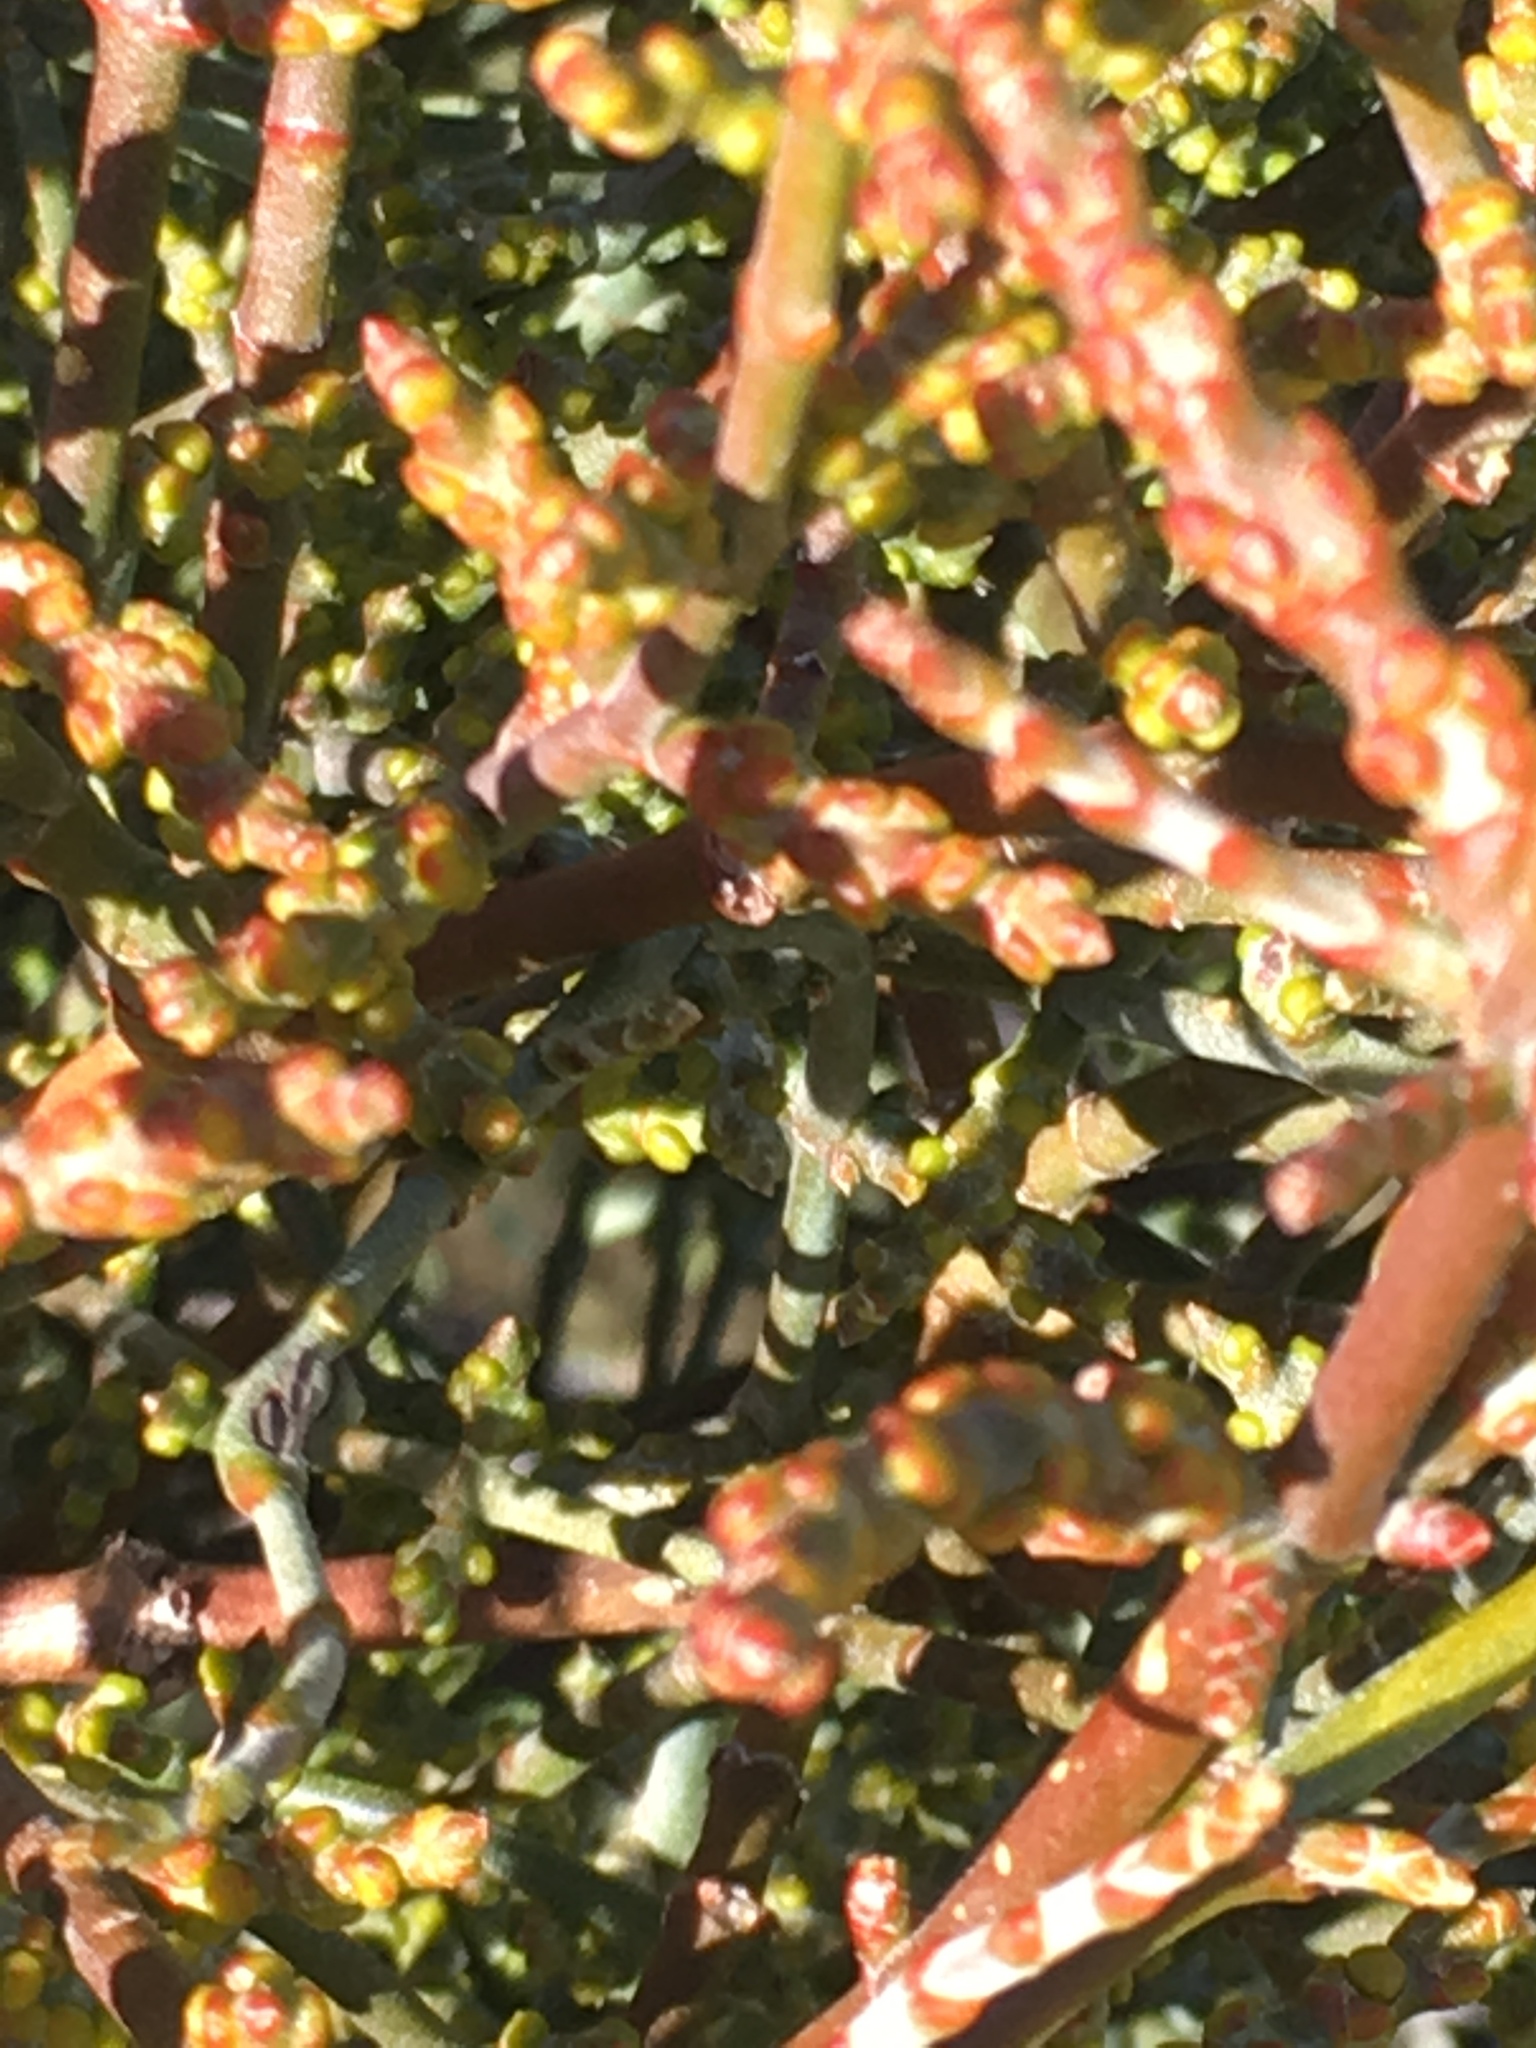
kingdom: Plantae
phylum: Tracheophyta
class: Magnoliopsida
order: Santalales
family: Viscaceae
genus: Phoradendron
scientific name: Phoradendron californicum
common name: Acacia mistletoe
